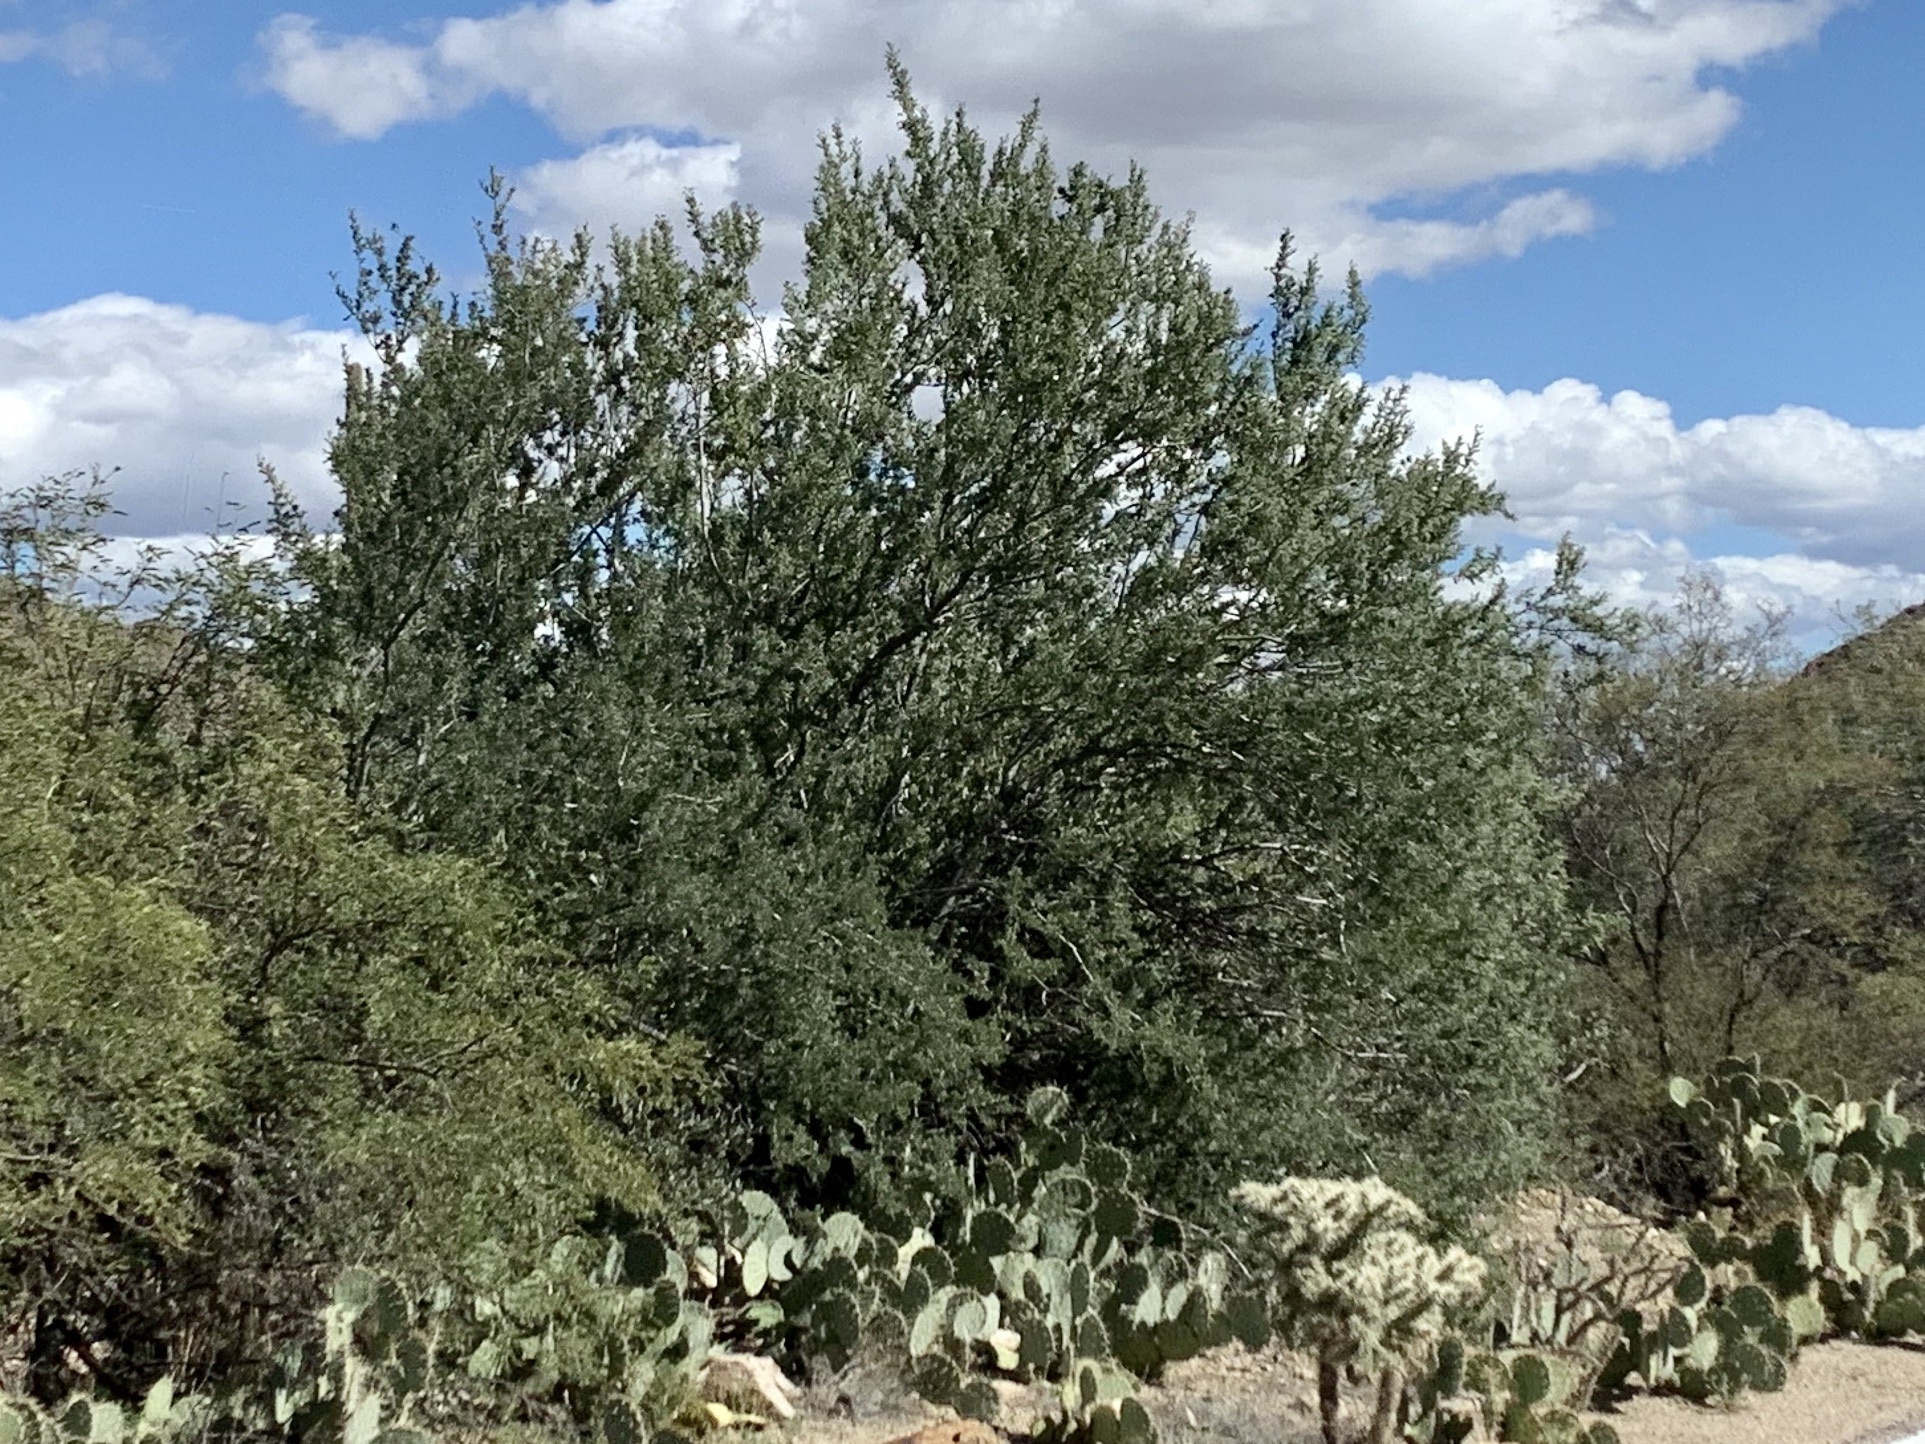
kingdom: Plantae
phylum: Tracheophyta
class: Magnoliopsida
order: Fabales
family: Fabaceae
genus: Olneya
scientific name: Olneya tesota
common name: Desert ironwood
